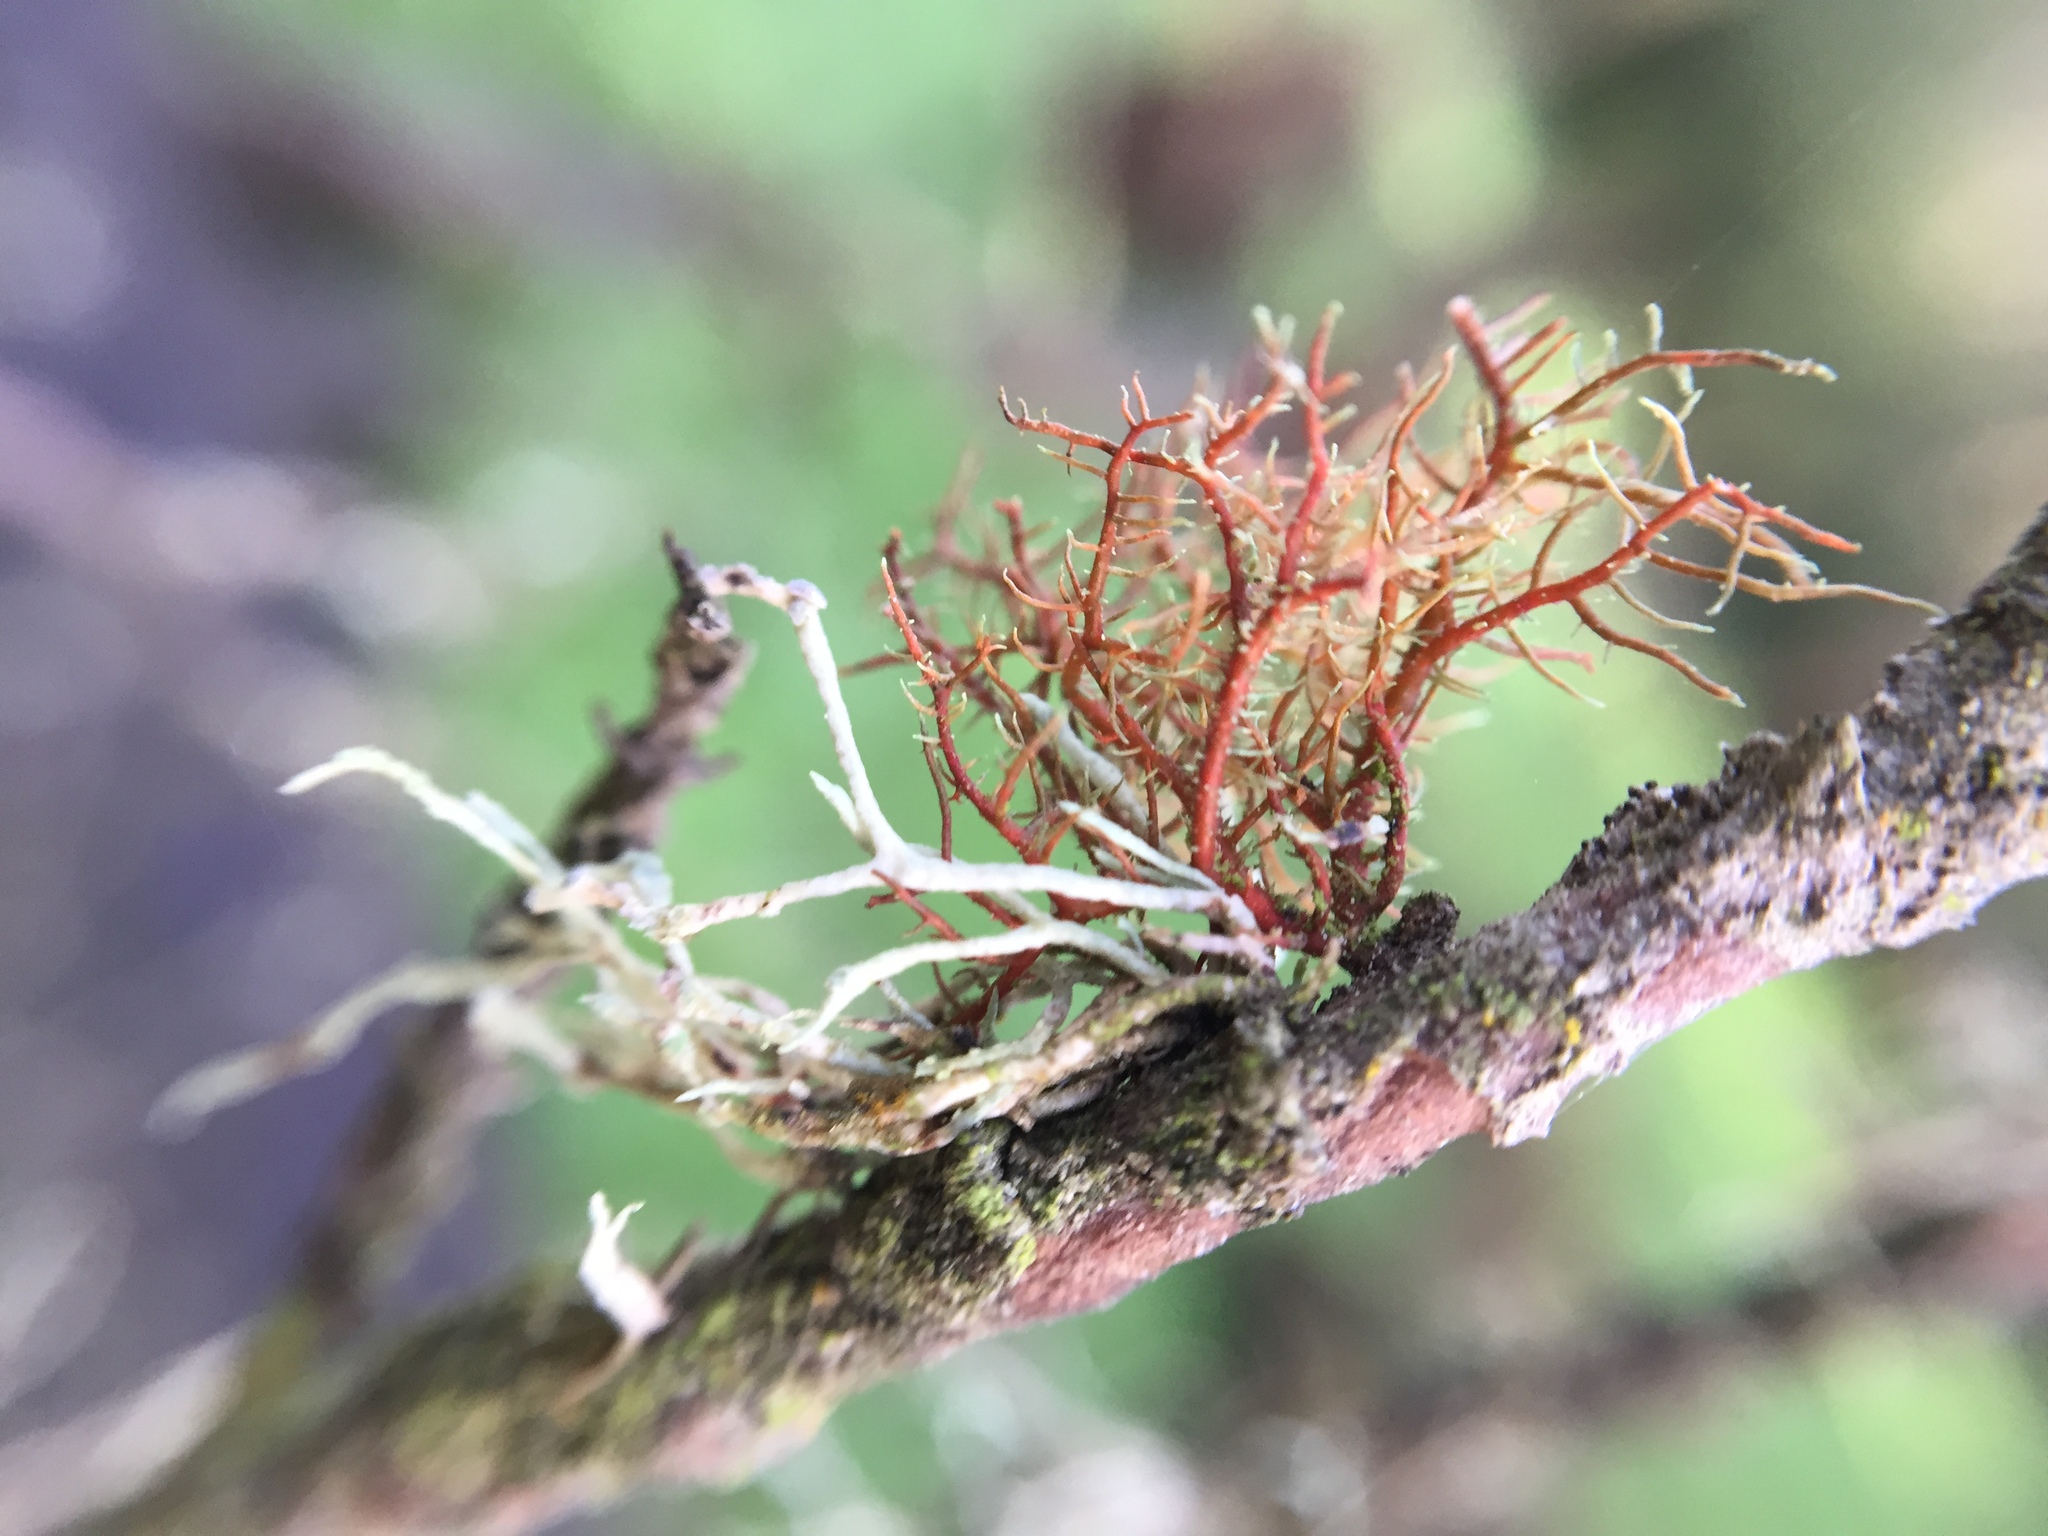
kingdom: Fungi
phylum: Ascomycota
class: Lecanoromycetes
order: Lecanorales
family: Parmeliaceae
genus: Usnea
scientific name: Usnea rubicunda
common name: Red beard lichen
